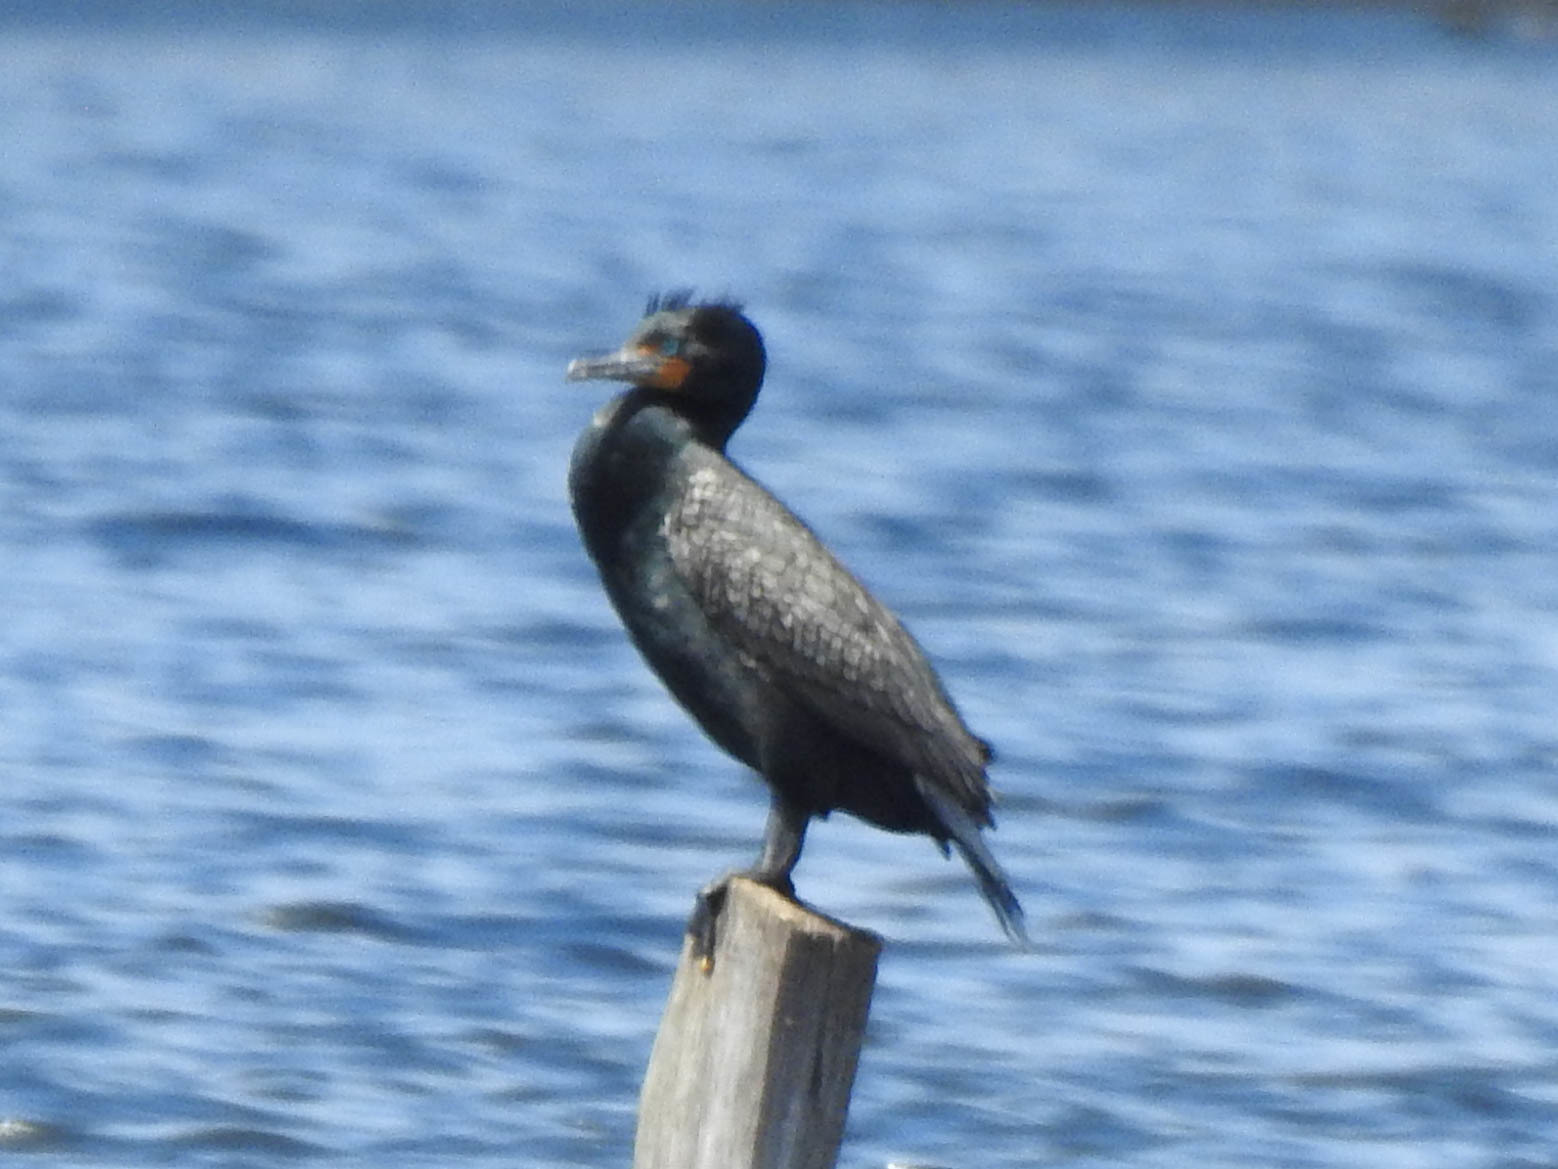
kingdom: Animalia
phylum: Chordata
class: Aves
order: Suliformes
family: Phalacrocoracidae
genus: Phalacrocorax
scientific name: Phalacrocorax auritus
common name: Double-crested cormorant
